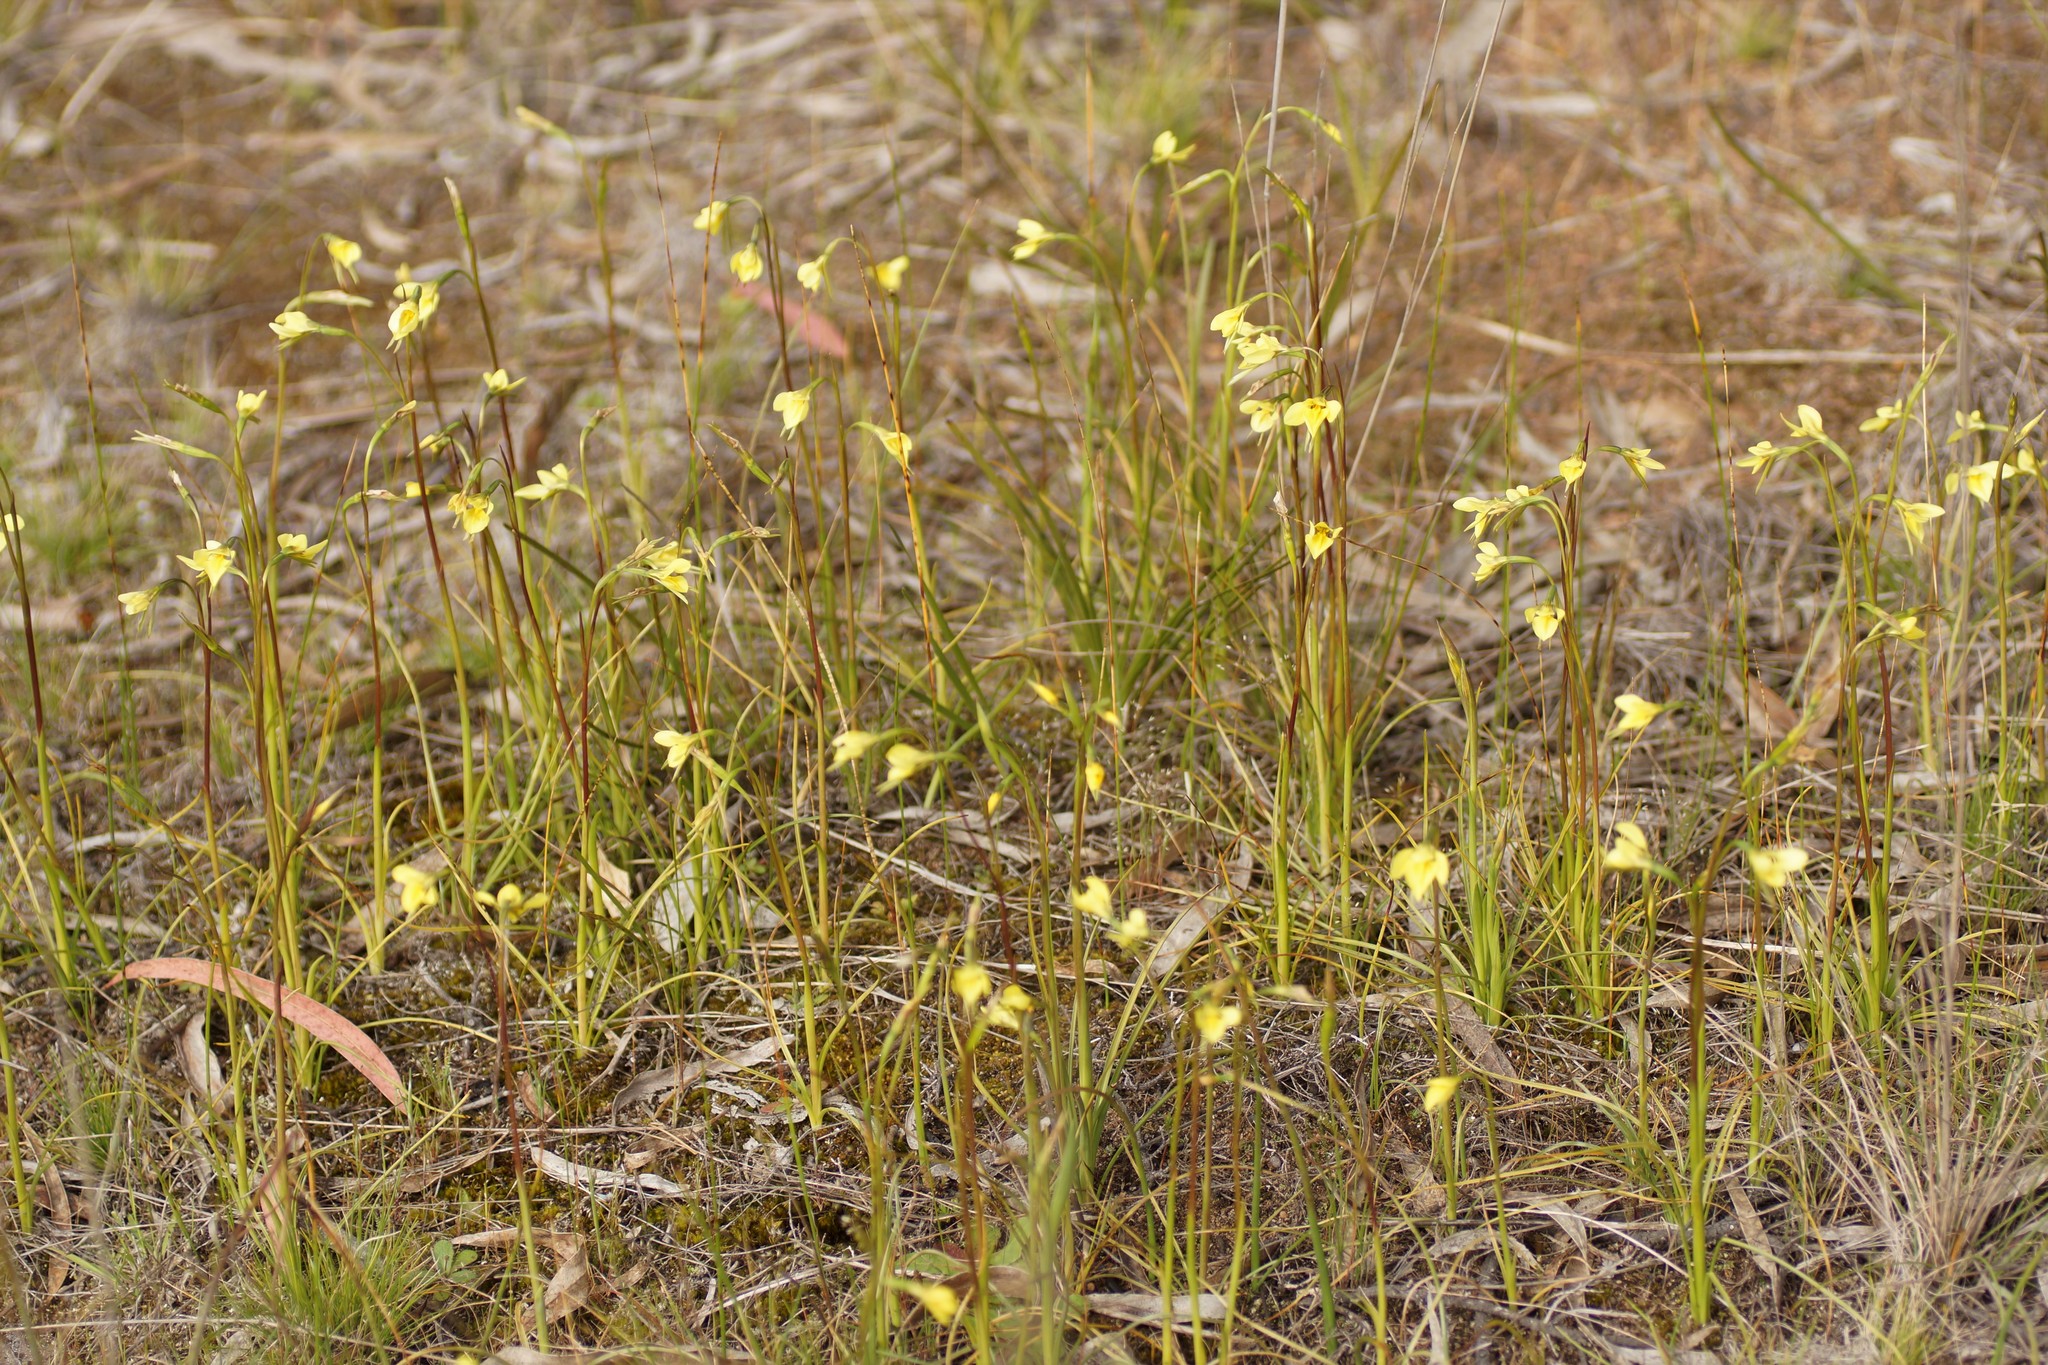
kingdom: Plantae
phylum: Tracheophyta
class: Liliopsida
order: Asparagales
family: Orchidaceae
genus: Diuris
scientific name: Diuris chryseopsis
